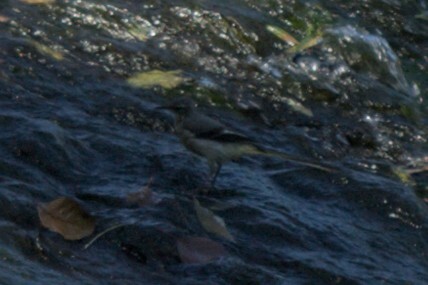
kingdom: Animalia
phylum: Chordata
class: Aves
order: Passeriformes
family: Motacillidae
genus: Motacilla
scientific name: Motacilla cinerea
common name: Grey wagtail
